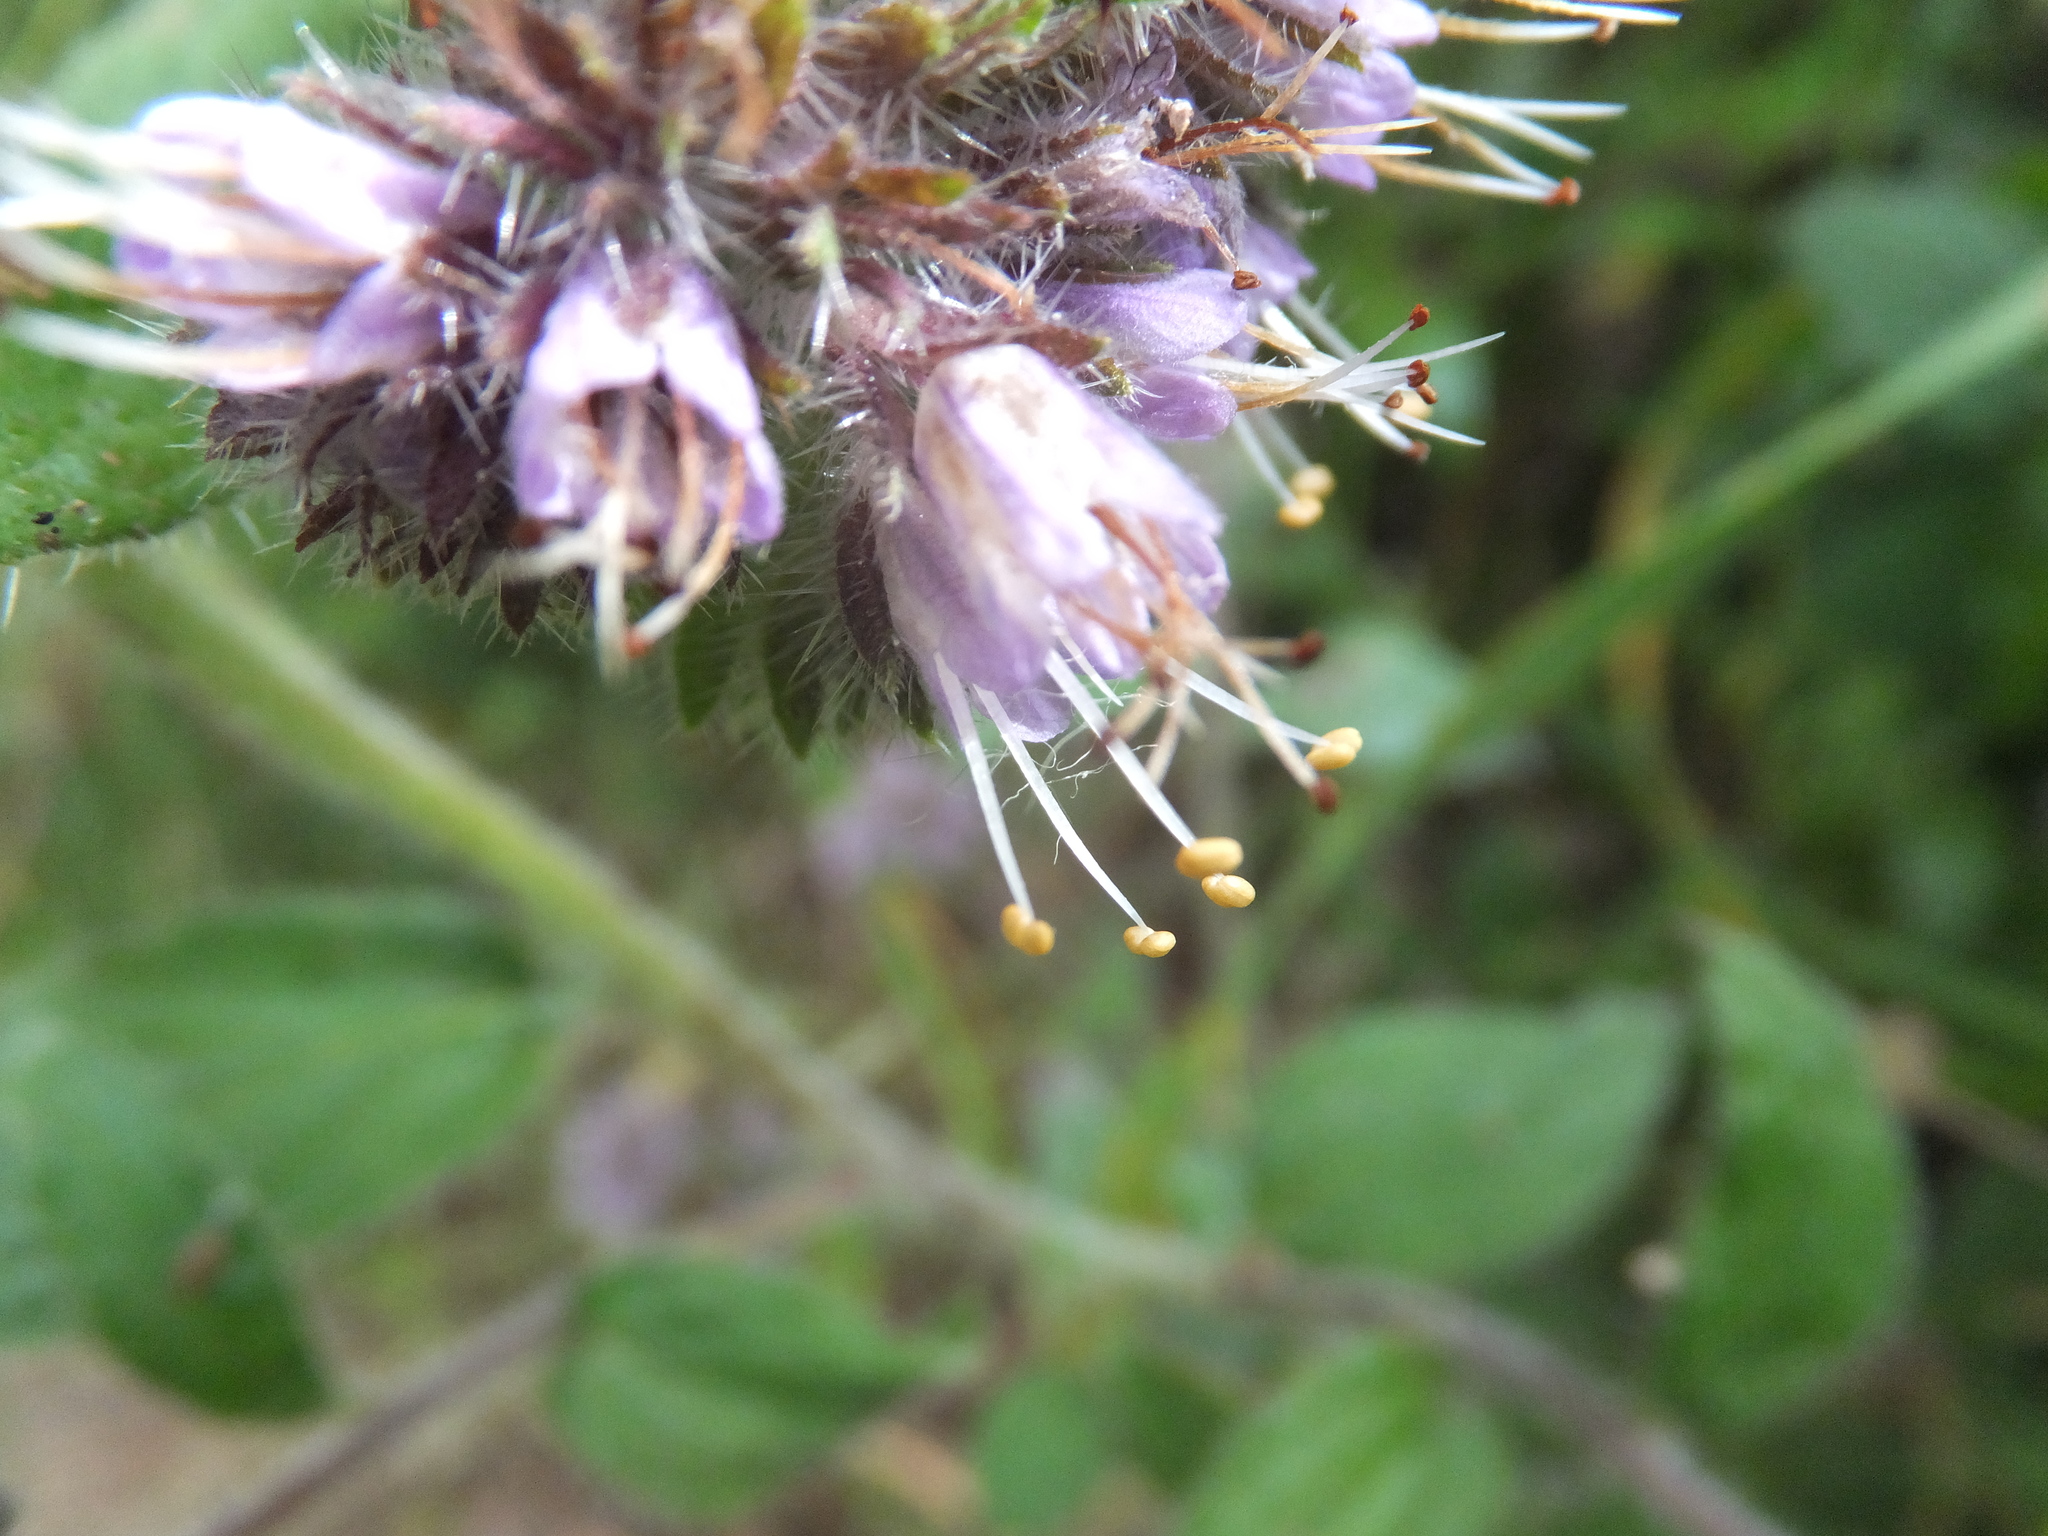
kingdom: Plantae
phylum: Tracheophyta
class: Magnoliopsida
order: Boraginales
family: Hydrophyllaceae
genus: Phacelia
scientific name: Phacelia californica
